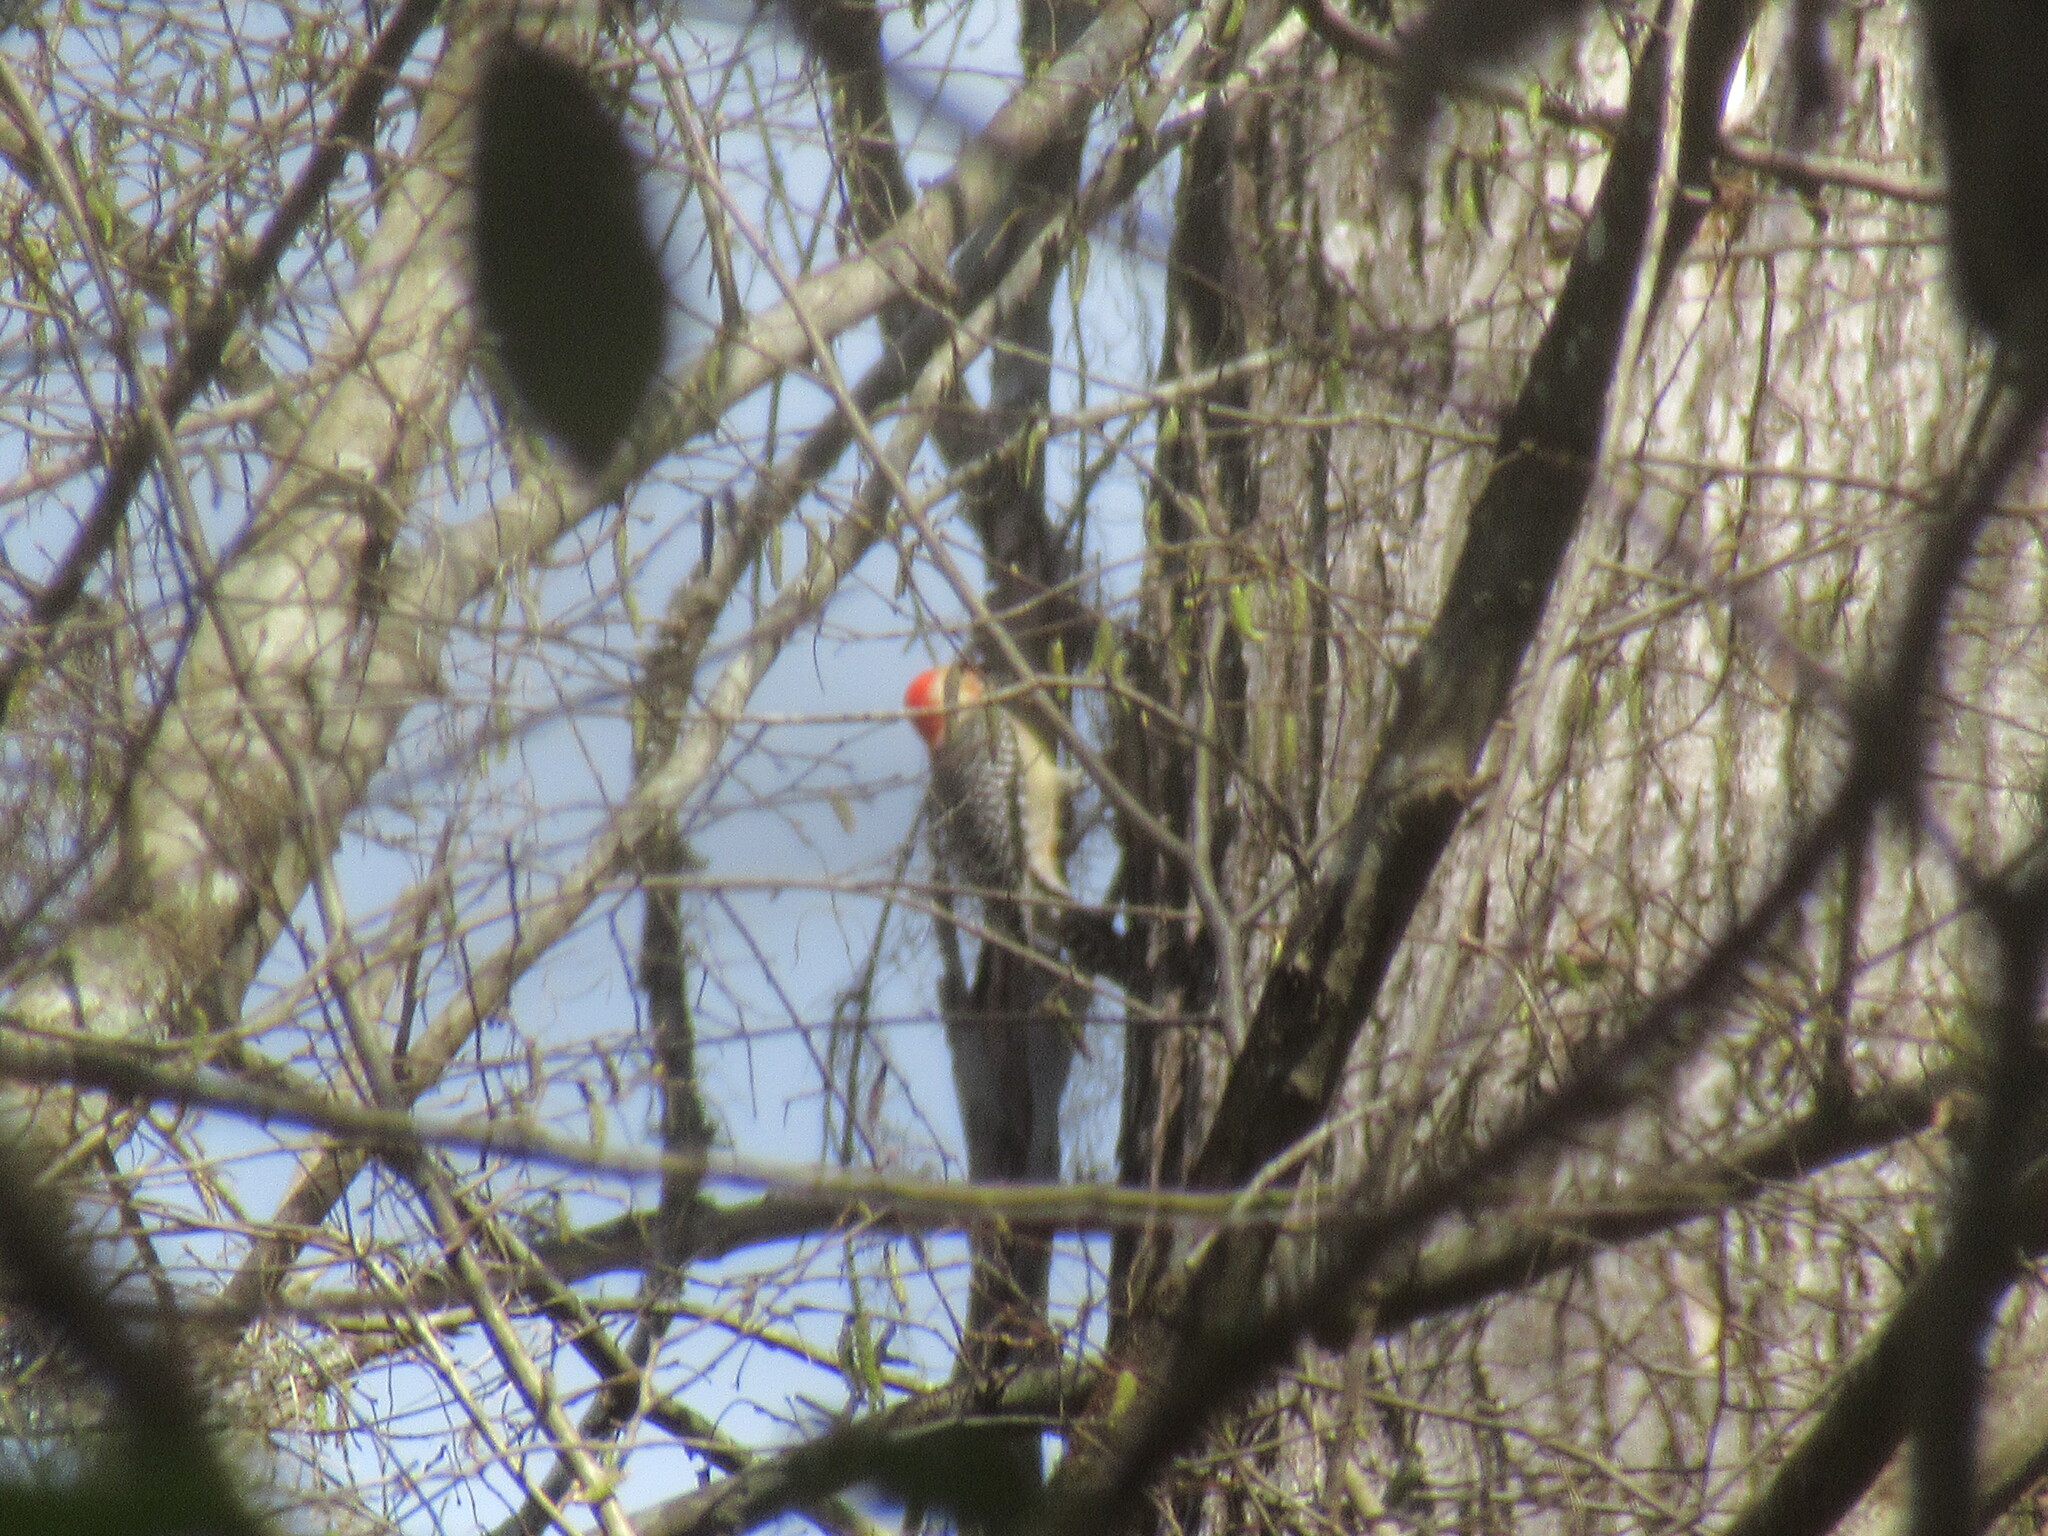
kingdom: Animalia
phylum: Chordata
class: Aves
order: Piciformes
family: Picidae
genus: Melanerpes
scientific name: Melanerpes carolinus
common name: Red-bellied woodpecker
